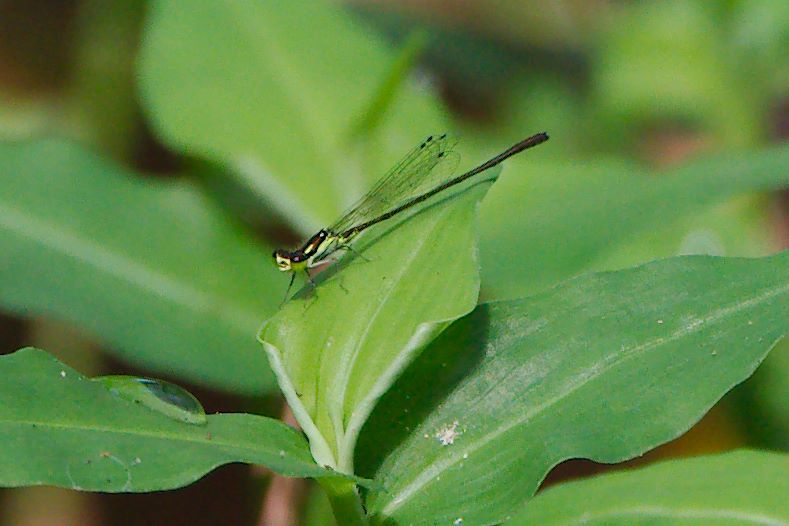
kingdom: Animalia
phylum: Arthropoda
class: Insecta
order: Odonata
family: Coenagrionidae
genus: Ischnura
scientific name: Ischnura posita
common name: Fragile forktail
